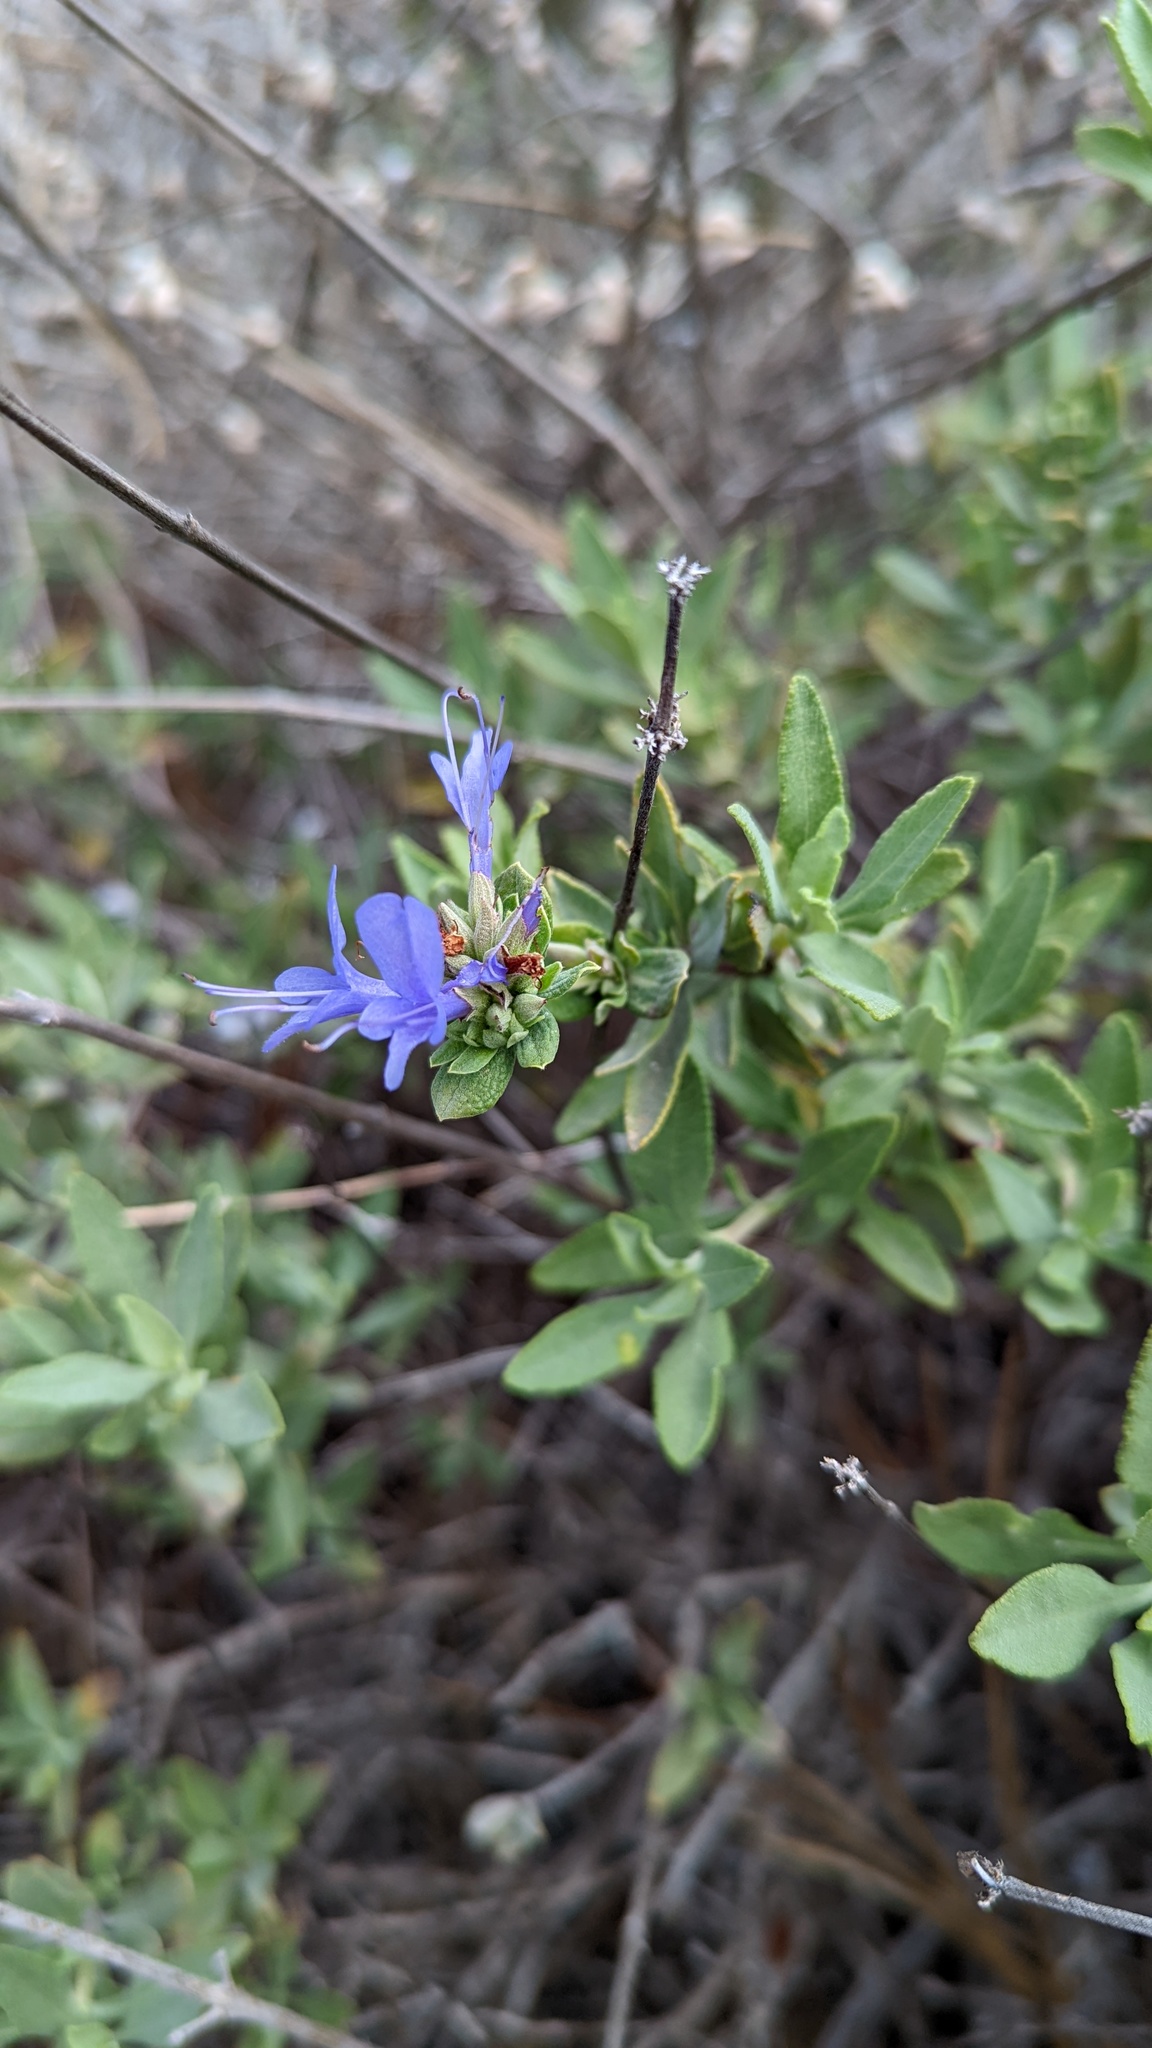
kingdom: Plantae
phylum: Tracheophyta
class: Magnoliopsida
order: Lamiales
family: Lamiaceae
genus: Salvia
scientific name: Salvia clevelandii
